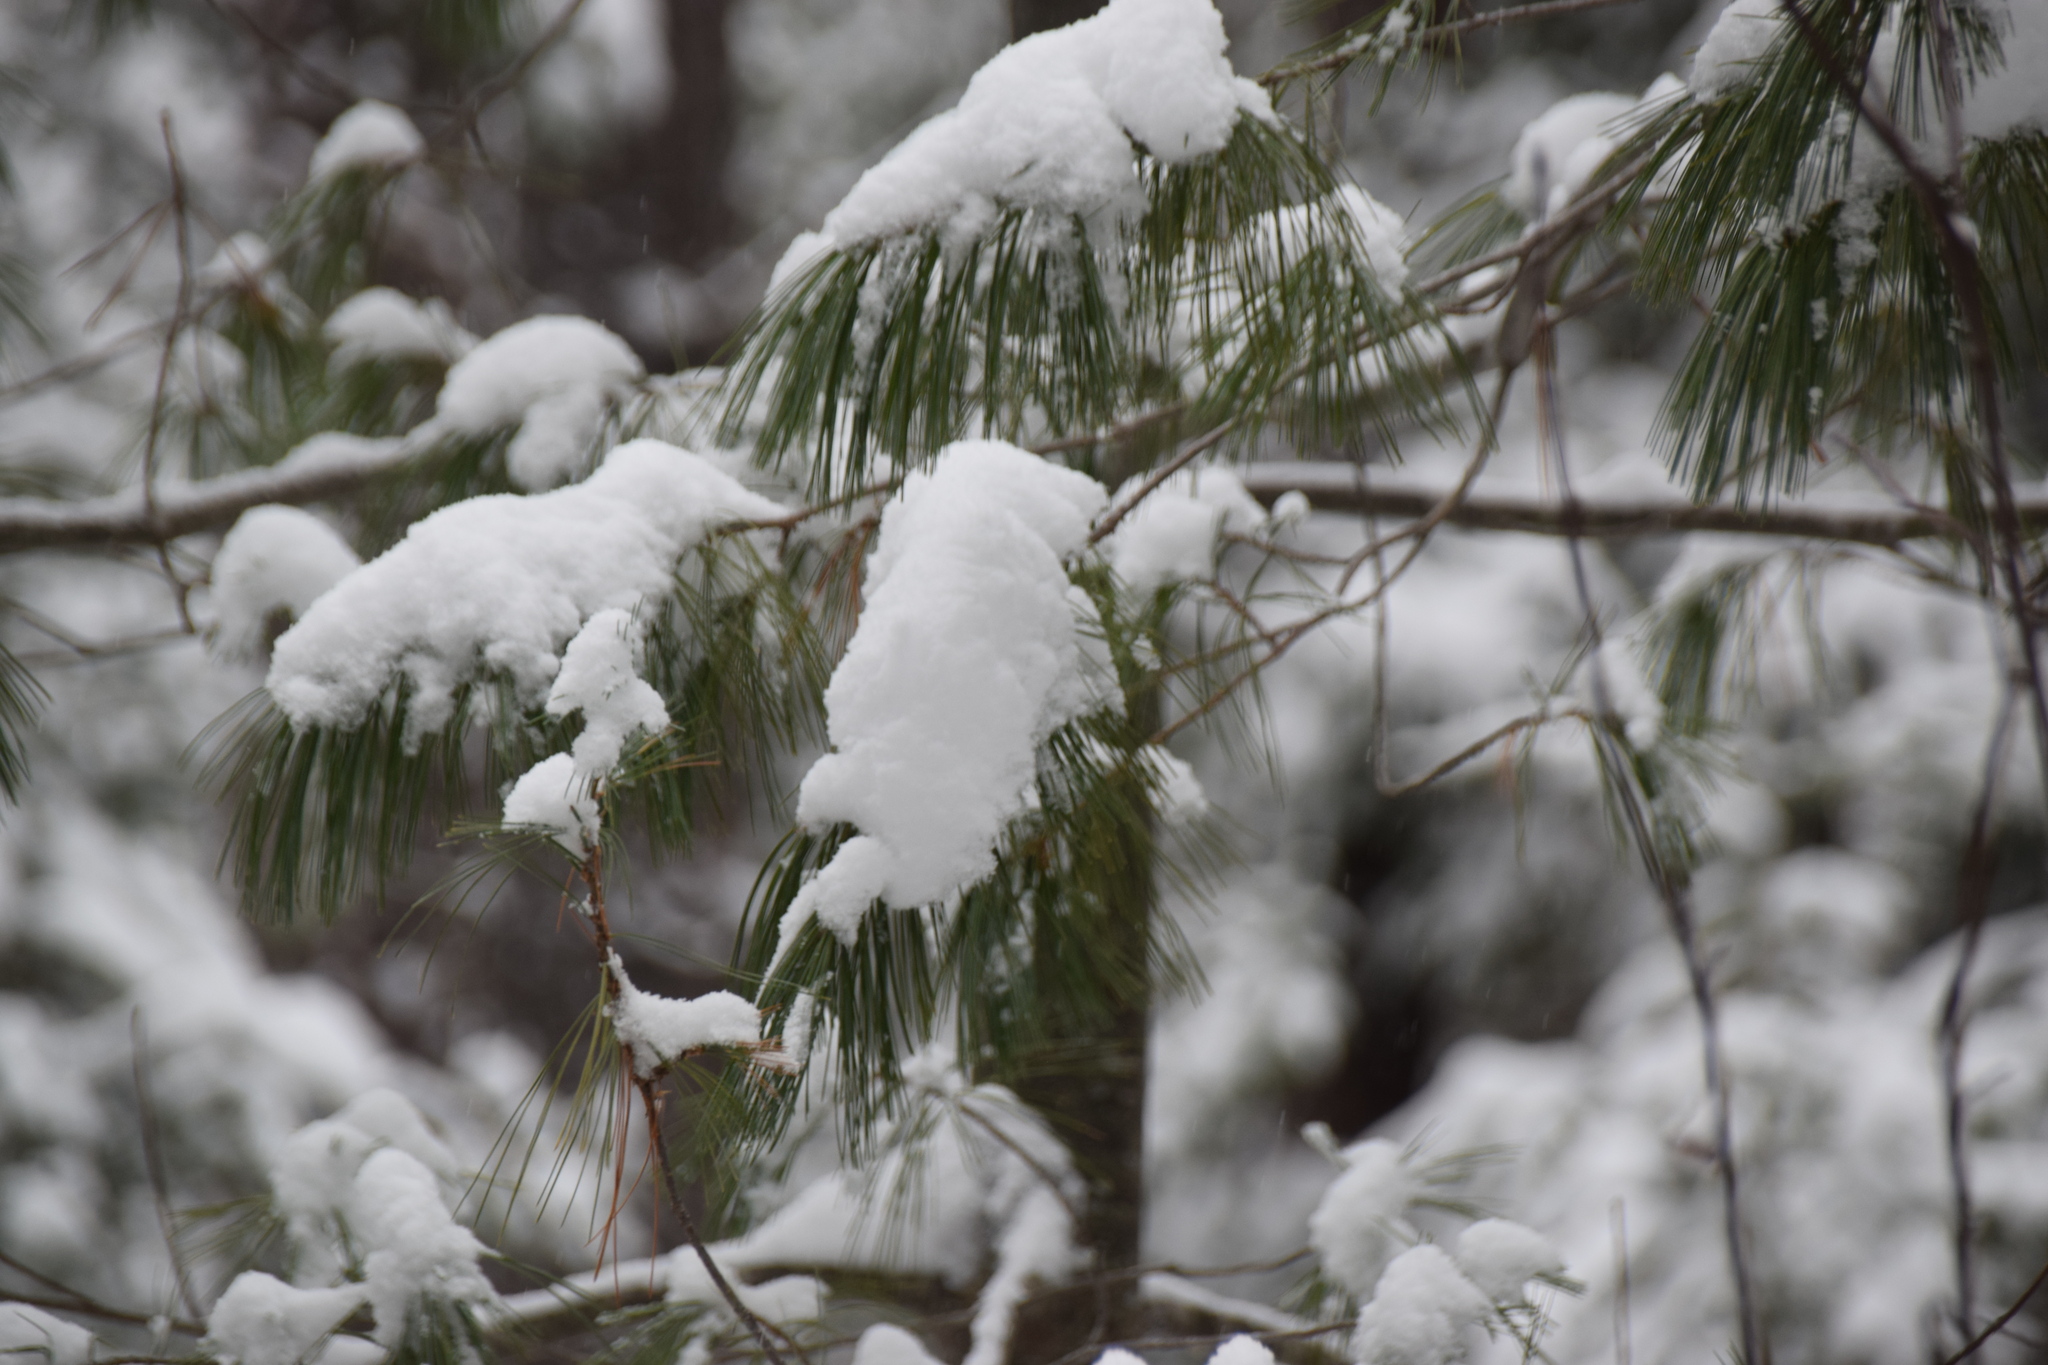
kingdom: Plantae
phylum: Tracheophyta
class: Pinopsida
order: Pinales
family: Pinaceae
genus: Pinus
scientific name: Pinus strobus
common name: Weymouth pine
